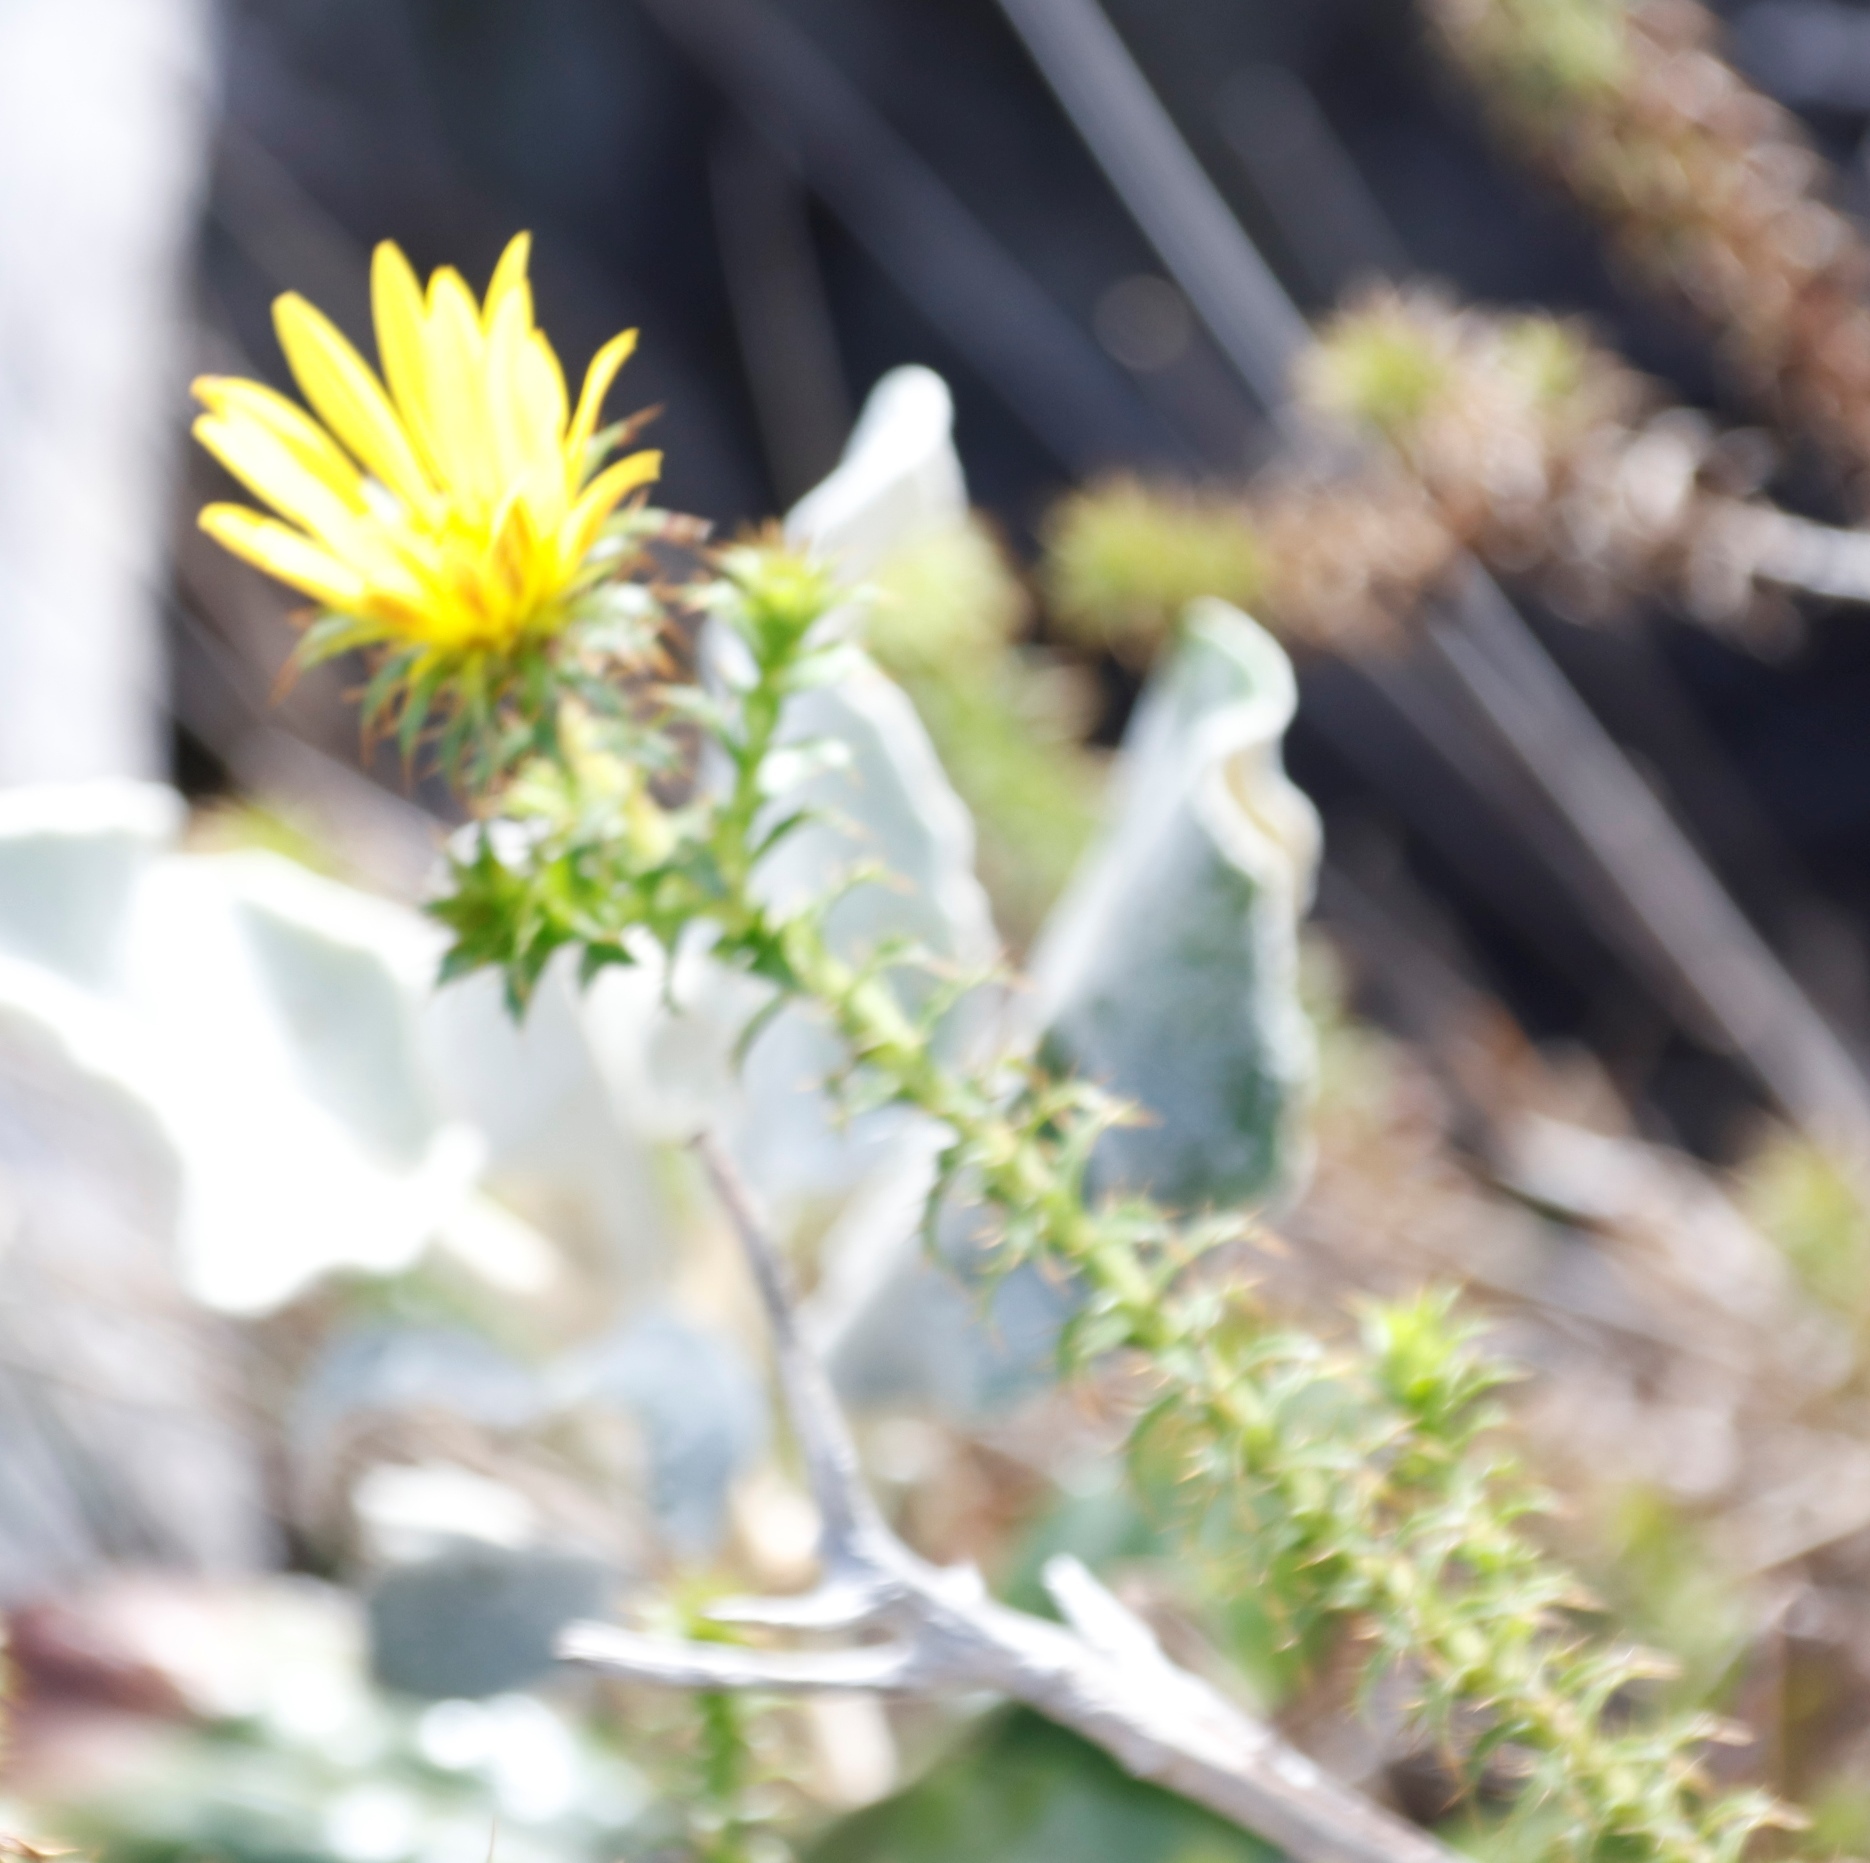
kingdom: Plantae
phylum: Tracheophyta
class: Magnoliopsida
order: Asterales
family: Asteraceae
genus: Cullumia
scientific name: Cullumia setosa
